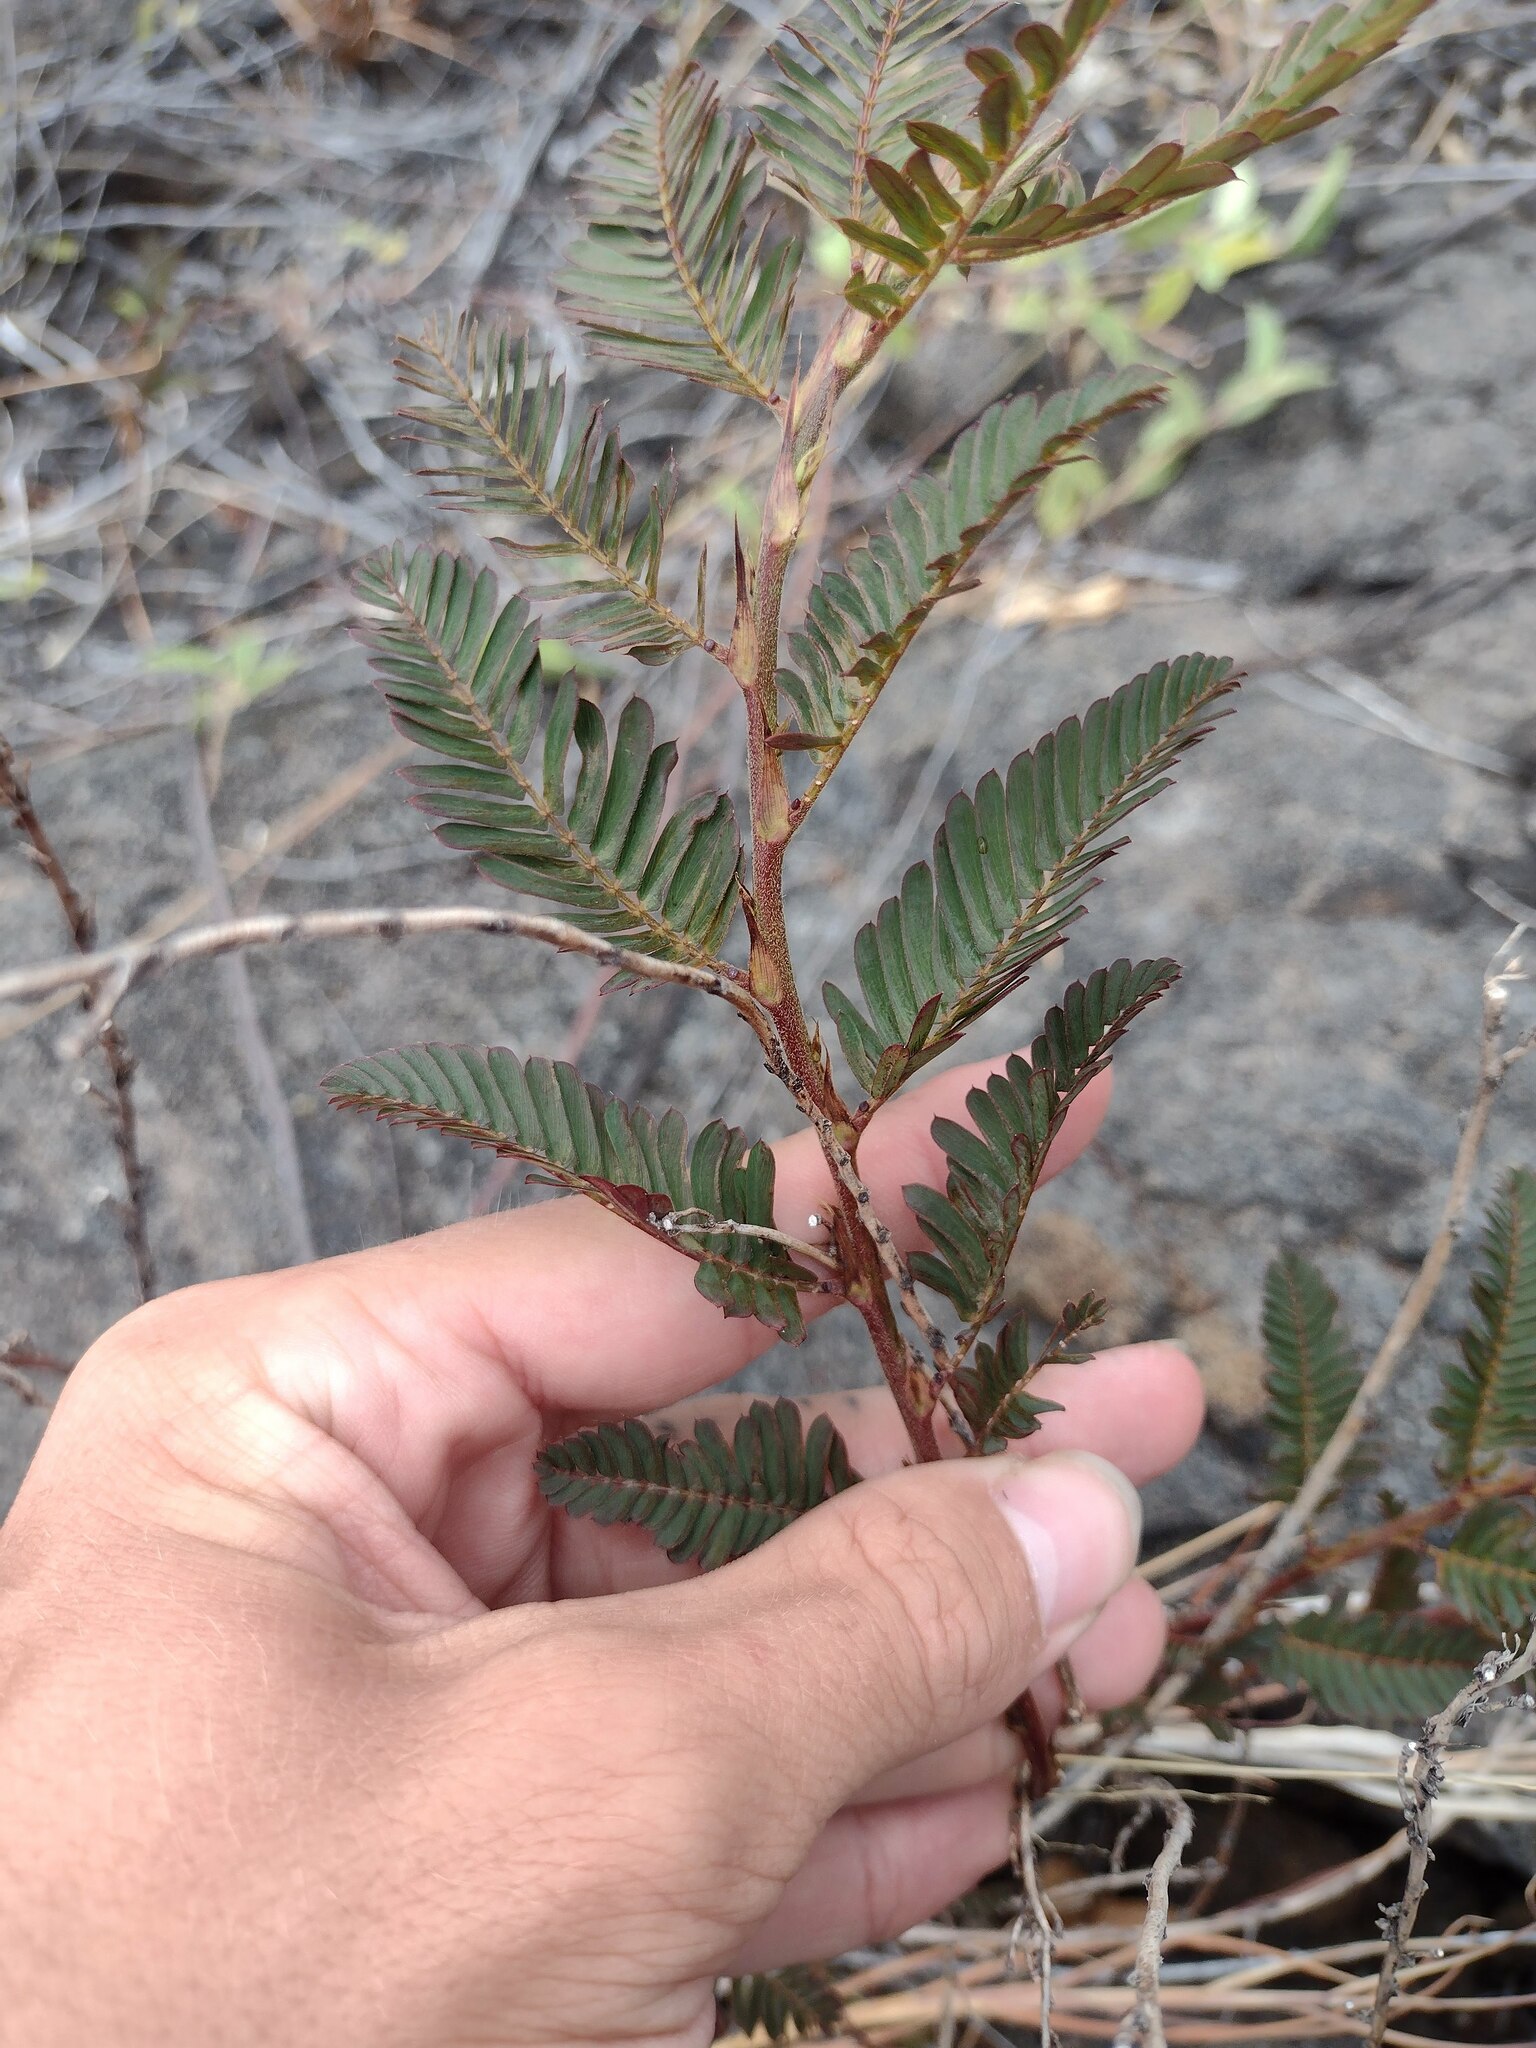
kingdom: Plantae
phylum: Tracheophyta
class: Magnoliopsida
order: Fabales
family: Fabaceae
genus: Chamaecrista
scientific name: Chamaecrista nictitans
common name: Sensitive cassia
